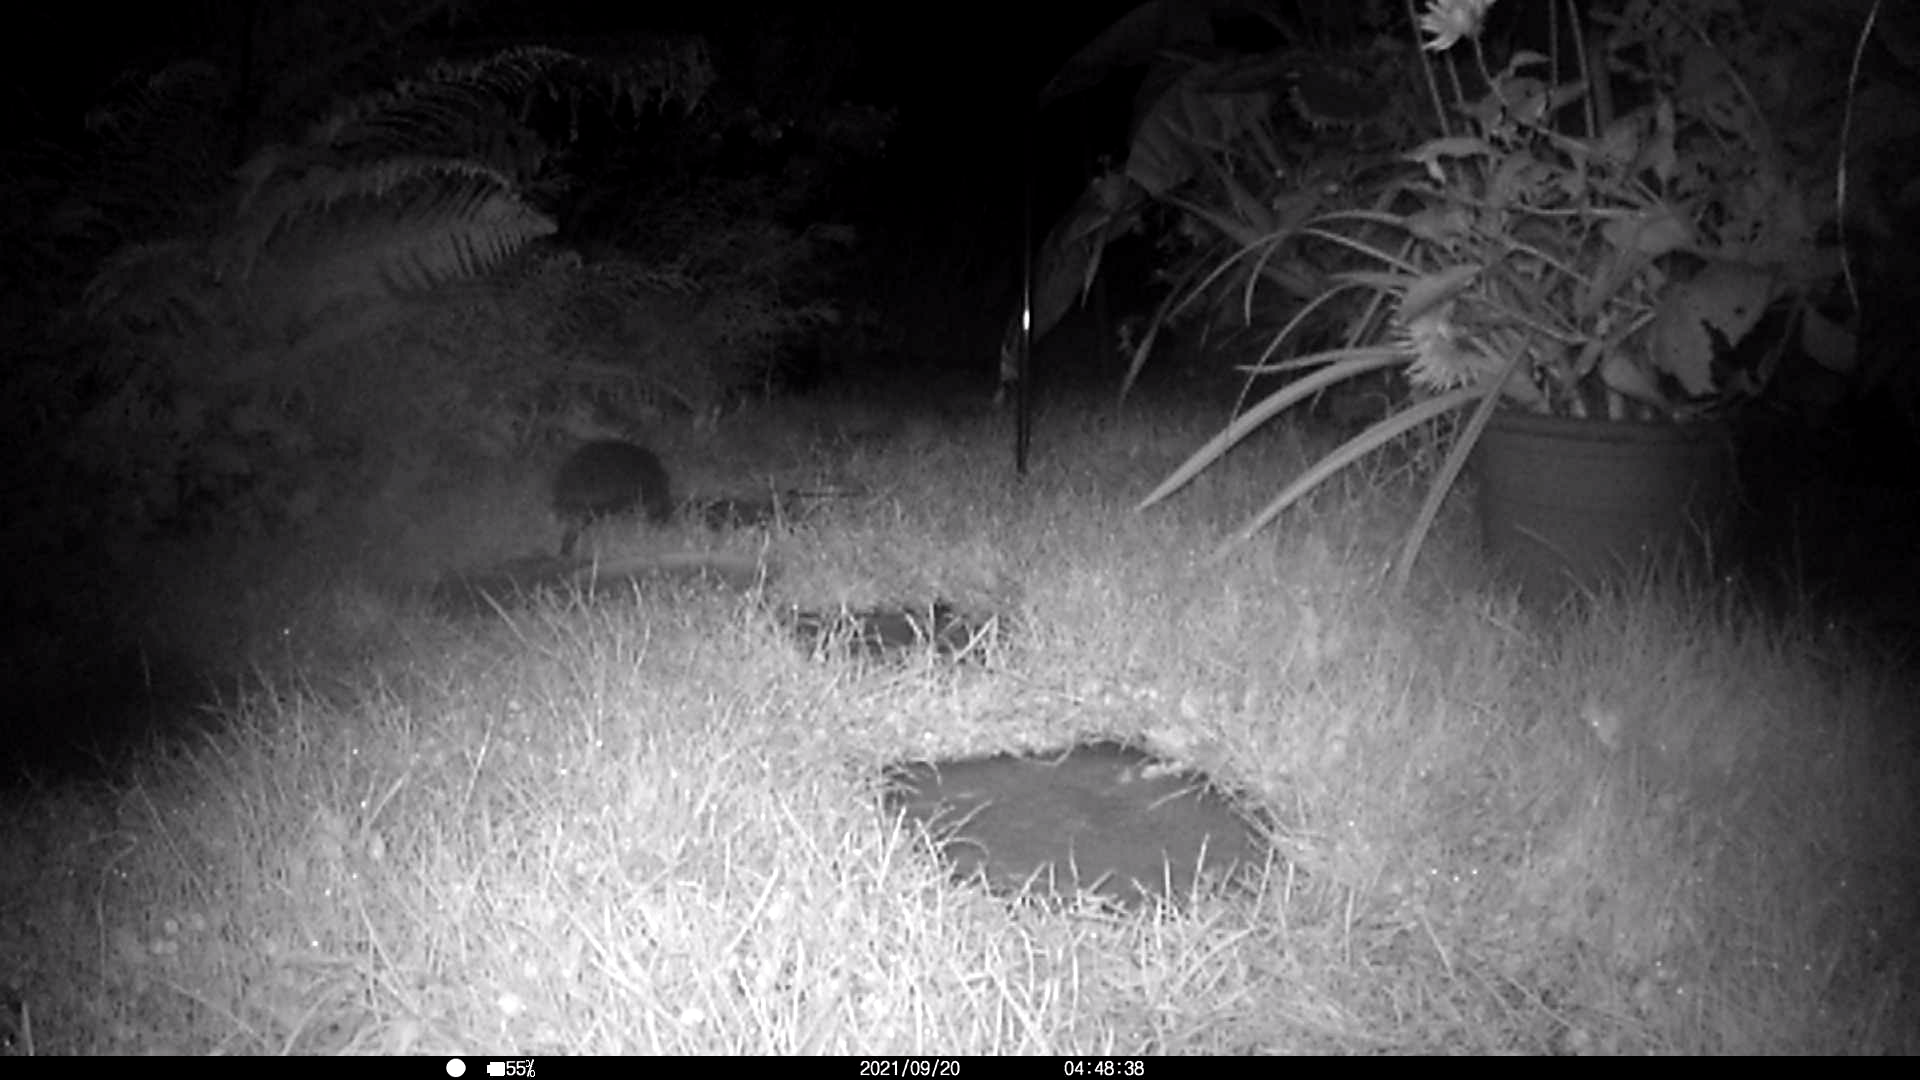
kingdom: Animalia
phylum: Chordata
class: Mammalia
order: Erinaceomorpha
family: Erinaceidae
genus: Erinaceus
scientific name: Erinaceus europaeus
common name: West european hedgehog
